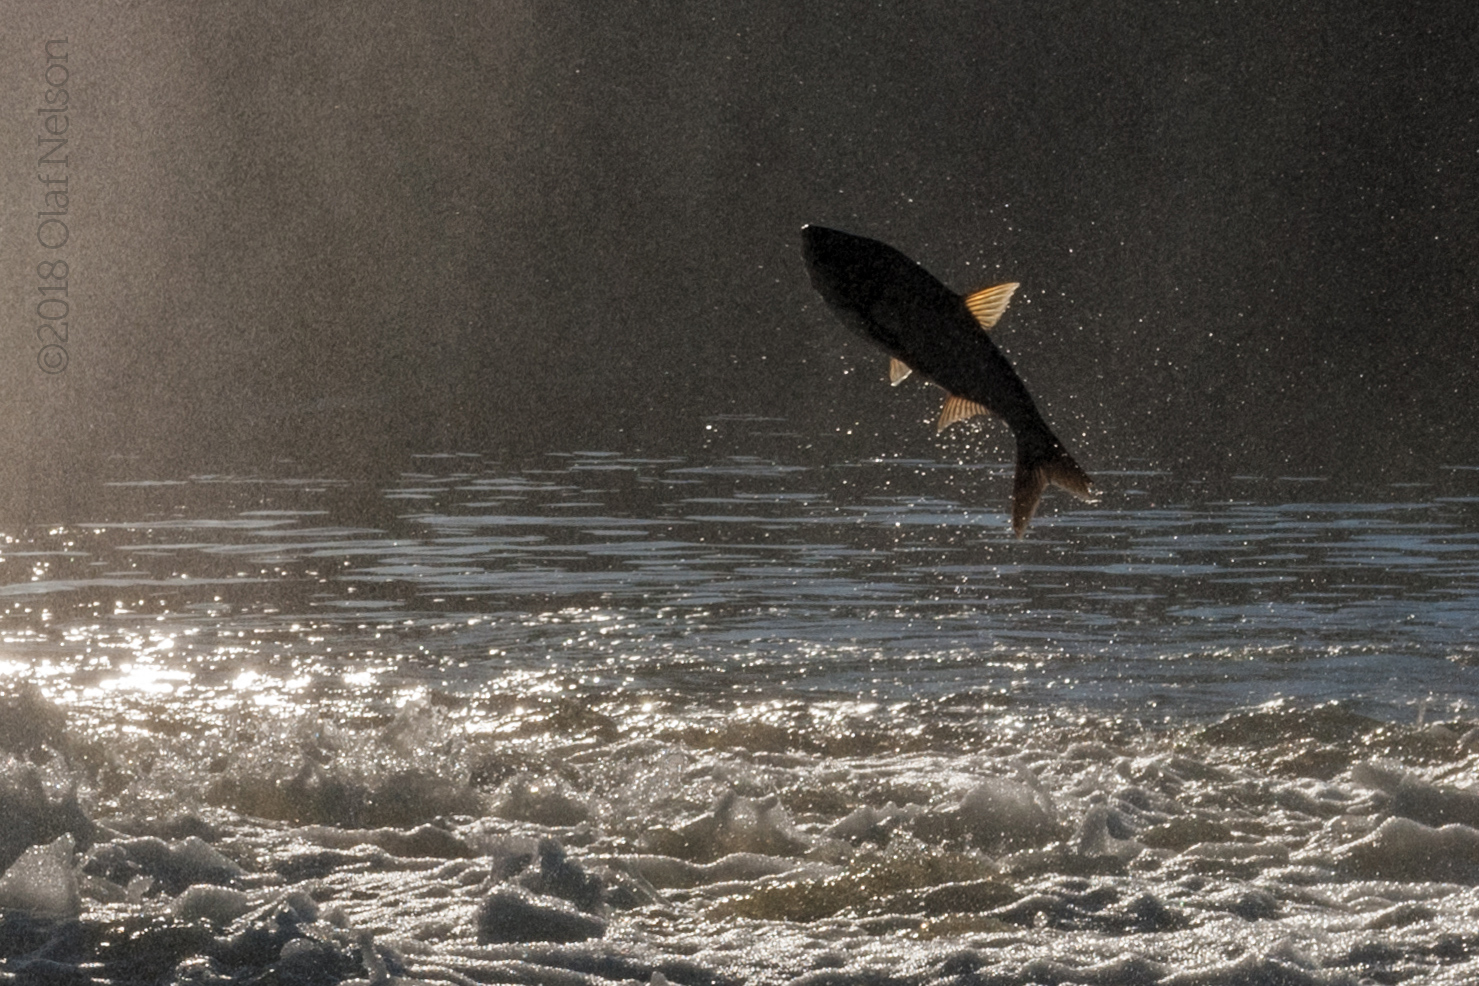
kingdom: Animalia
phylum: Chordata
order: Cypriniformes
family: Cyprinidae
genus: Hypophthalmichthys
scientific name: Hypophthalmichthys molitrix
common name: Silver carp
